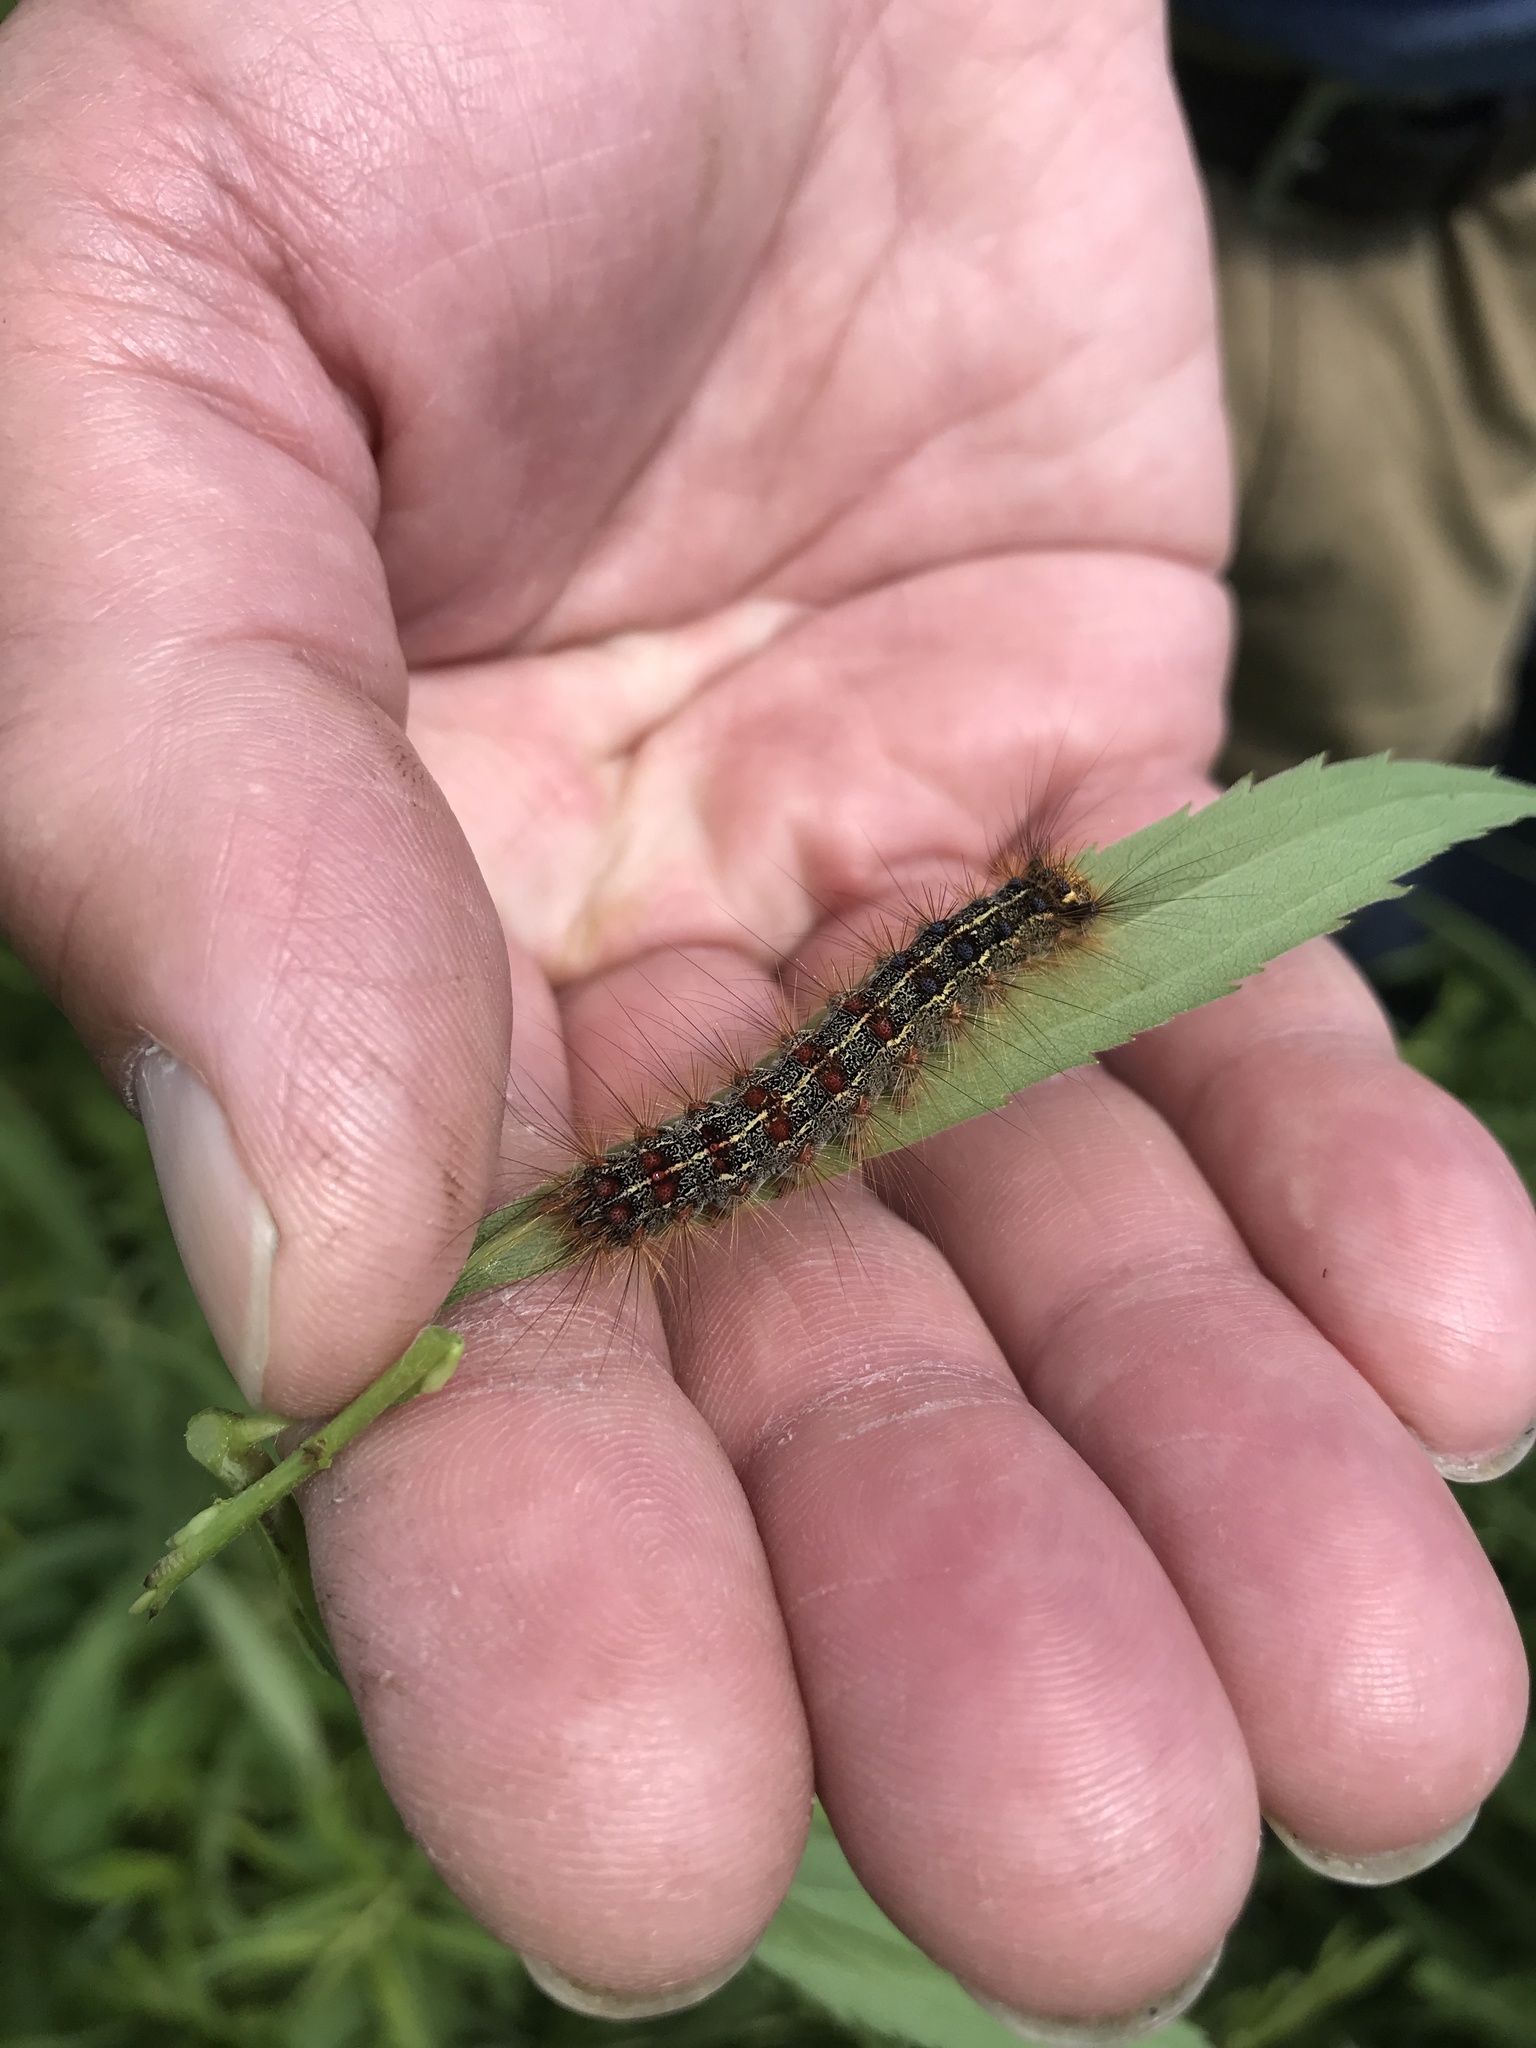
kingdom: Animalia
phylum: Arthropoda
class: Insecta
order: Lepidoptera
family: Erebidae
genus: Lymantria
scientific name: Lymantria dispar
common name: Gypsy moth
